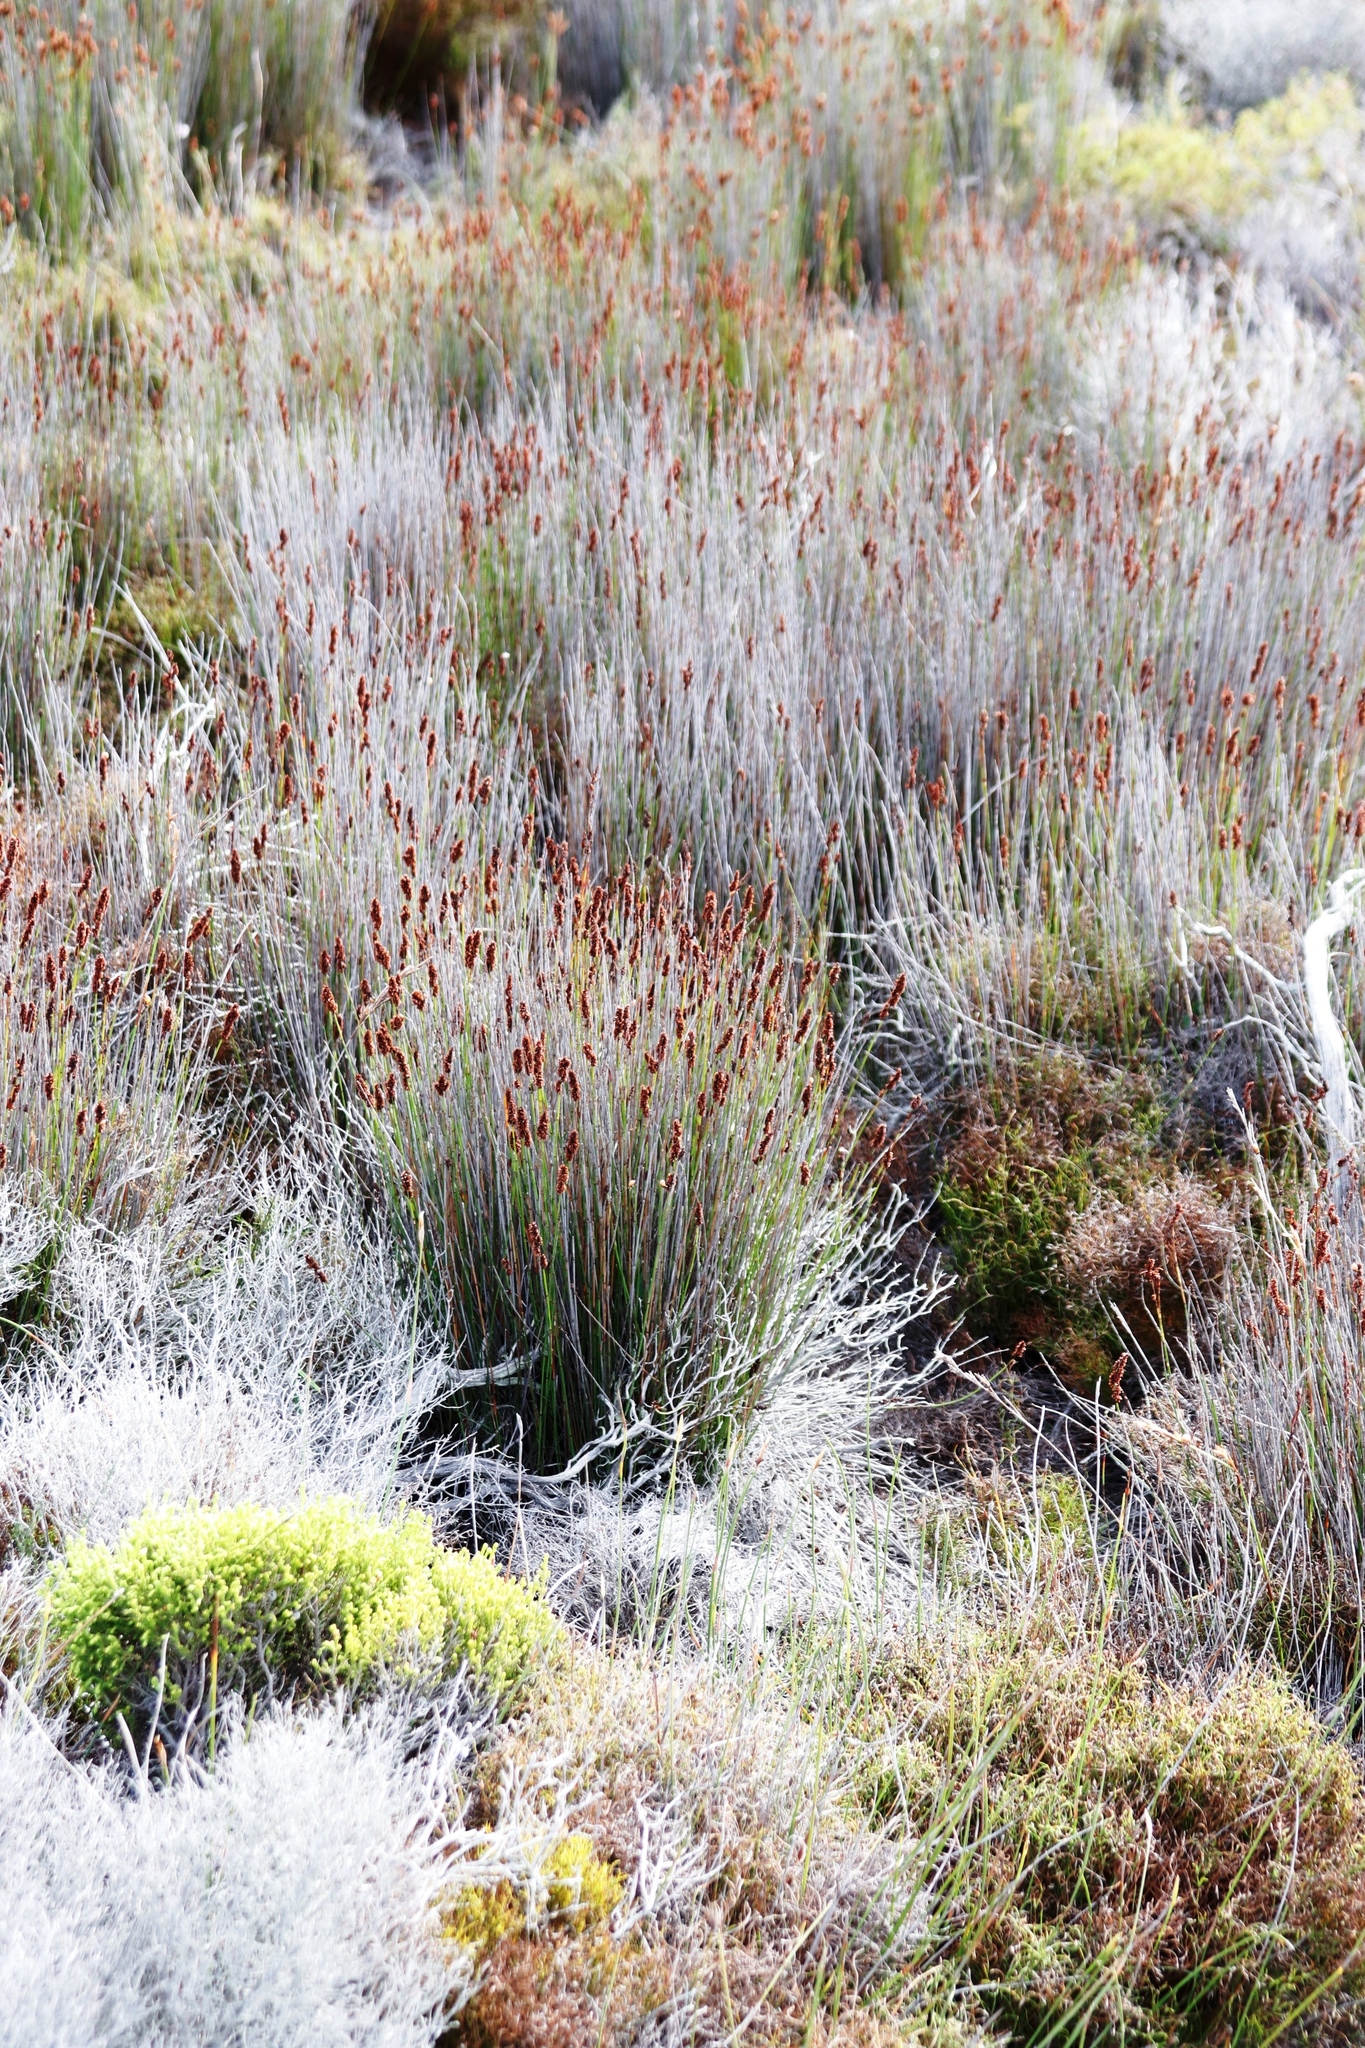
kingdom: Plantae
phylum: Tracheophyta
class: Liliopsida
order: Poales
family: Restionaceae
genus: Elegia
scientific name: Elegia nuda
